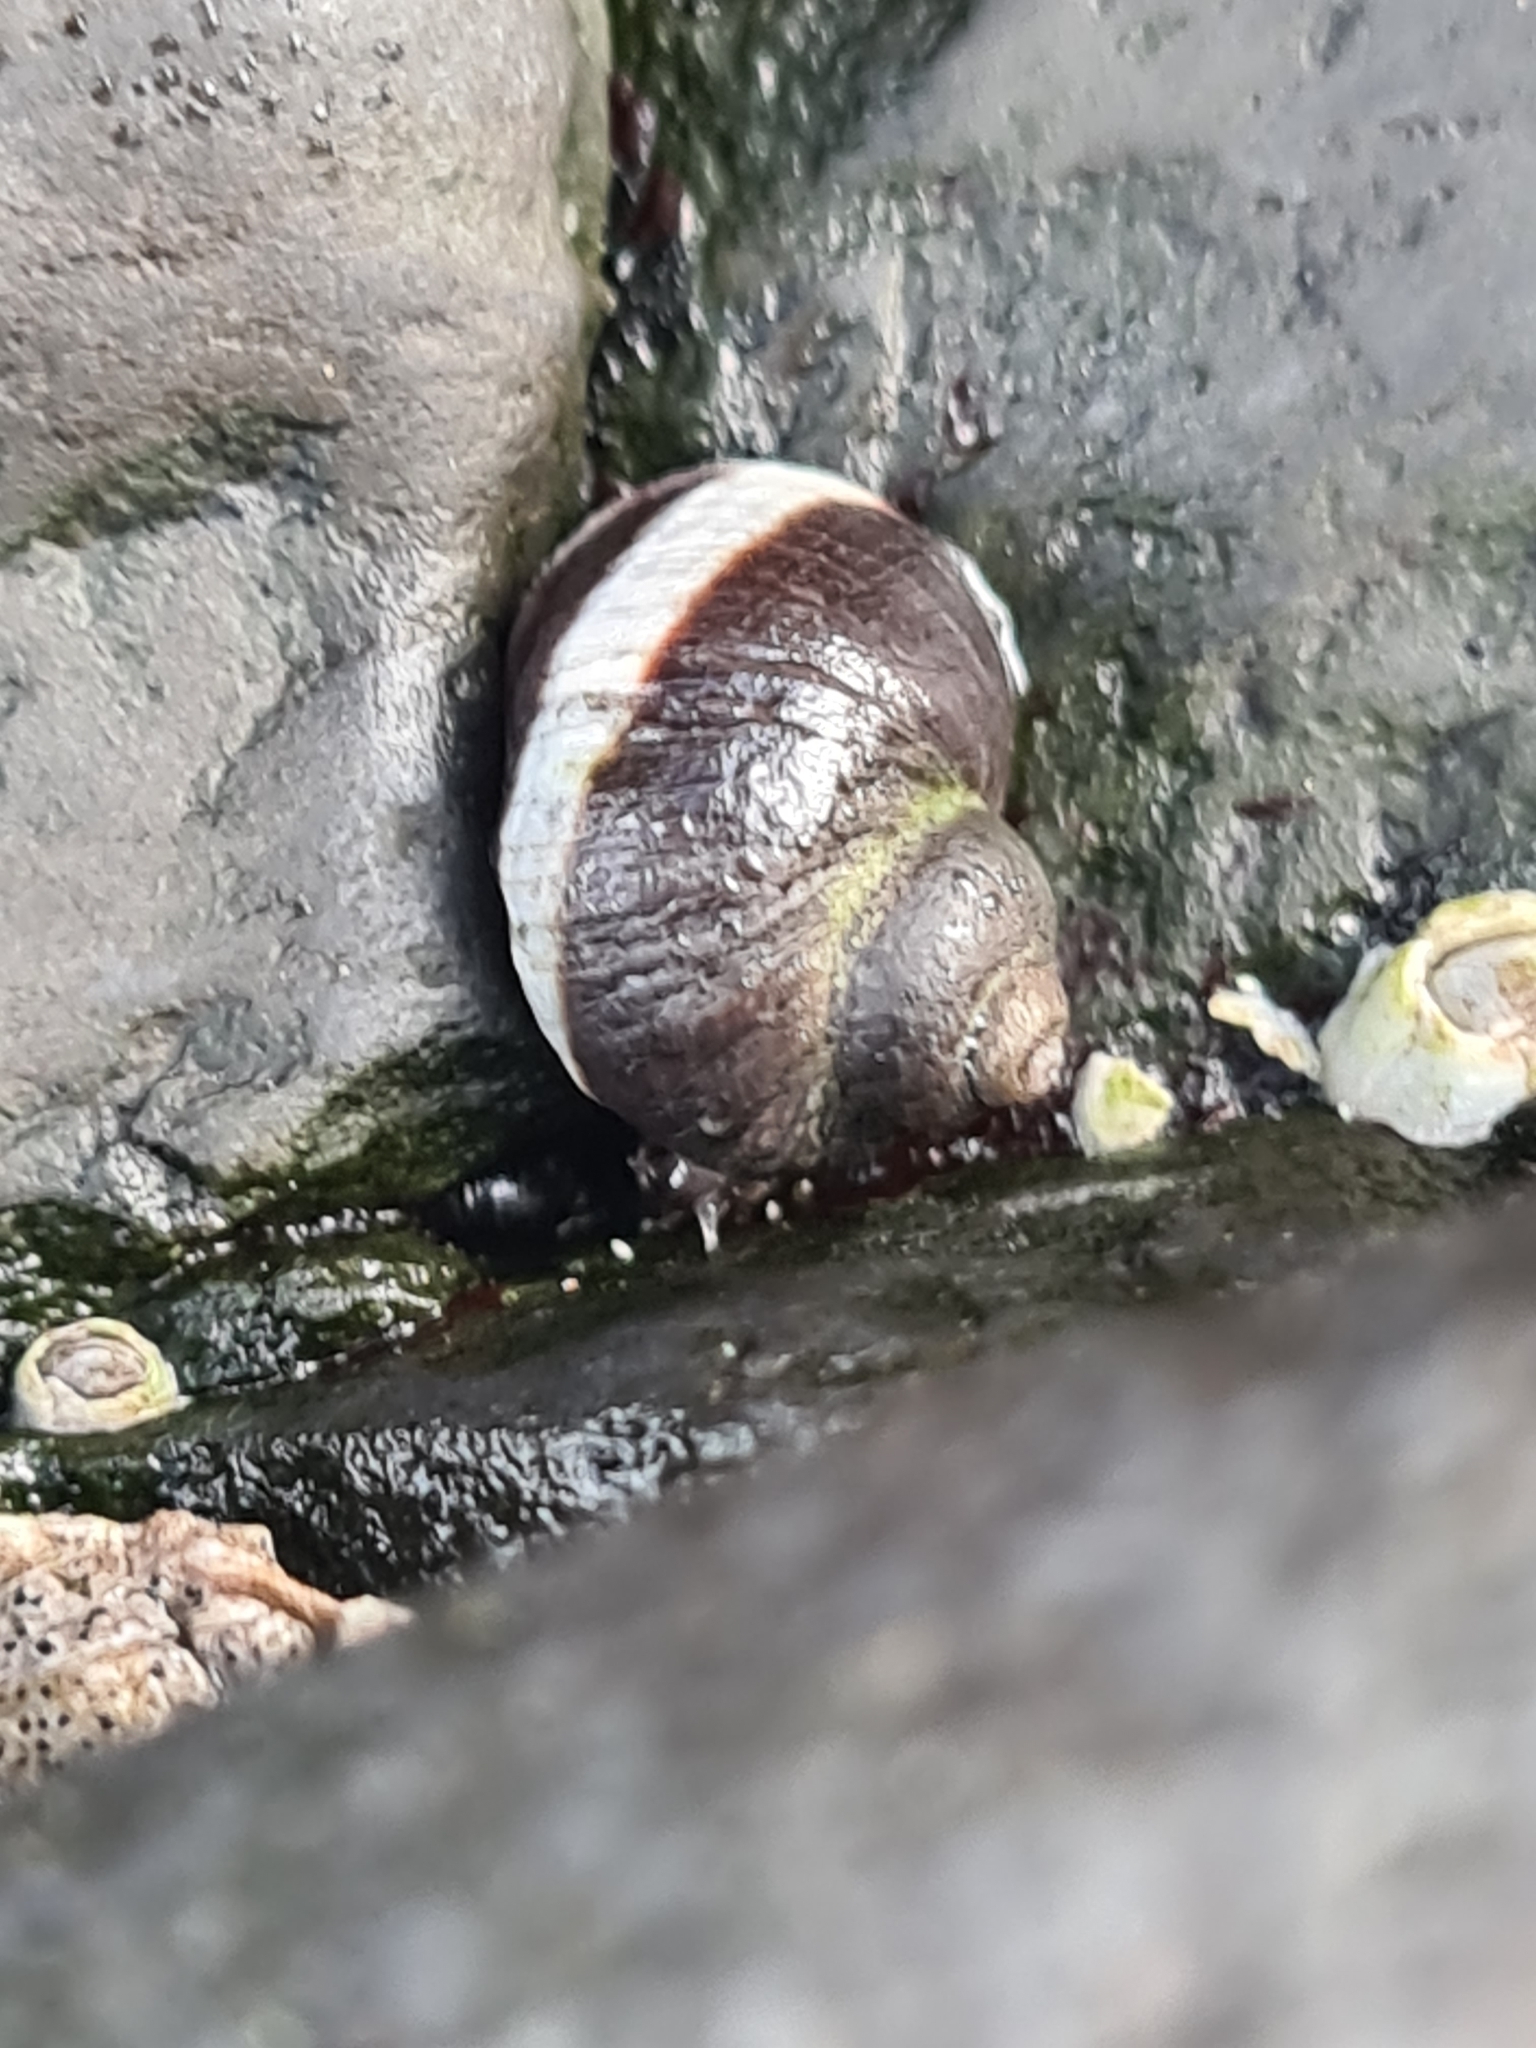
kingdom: Animalia
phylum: Mollusca
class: Gastropoda
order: Littorinimorpha
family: Littorinidae
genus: Littorina
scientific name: Littorina saxatilis
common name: Black-lined periwinkle
